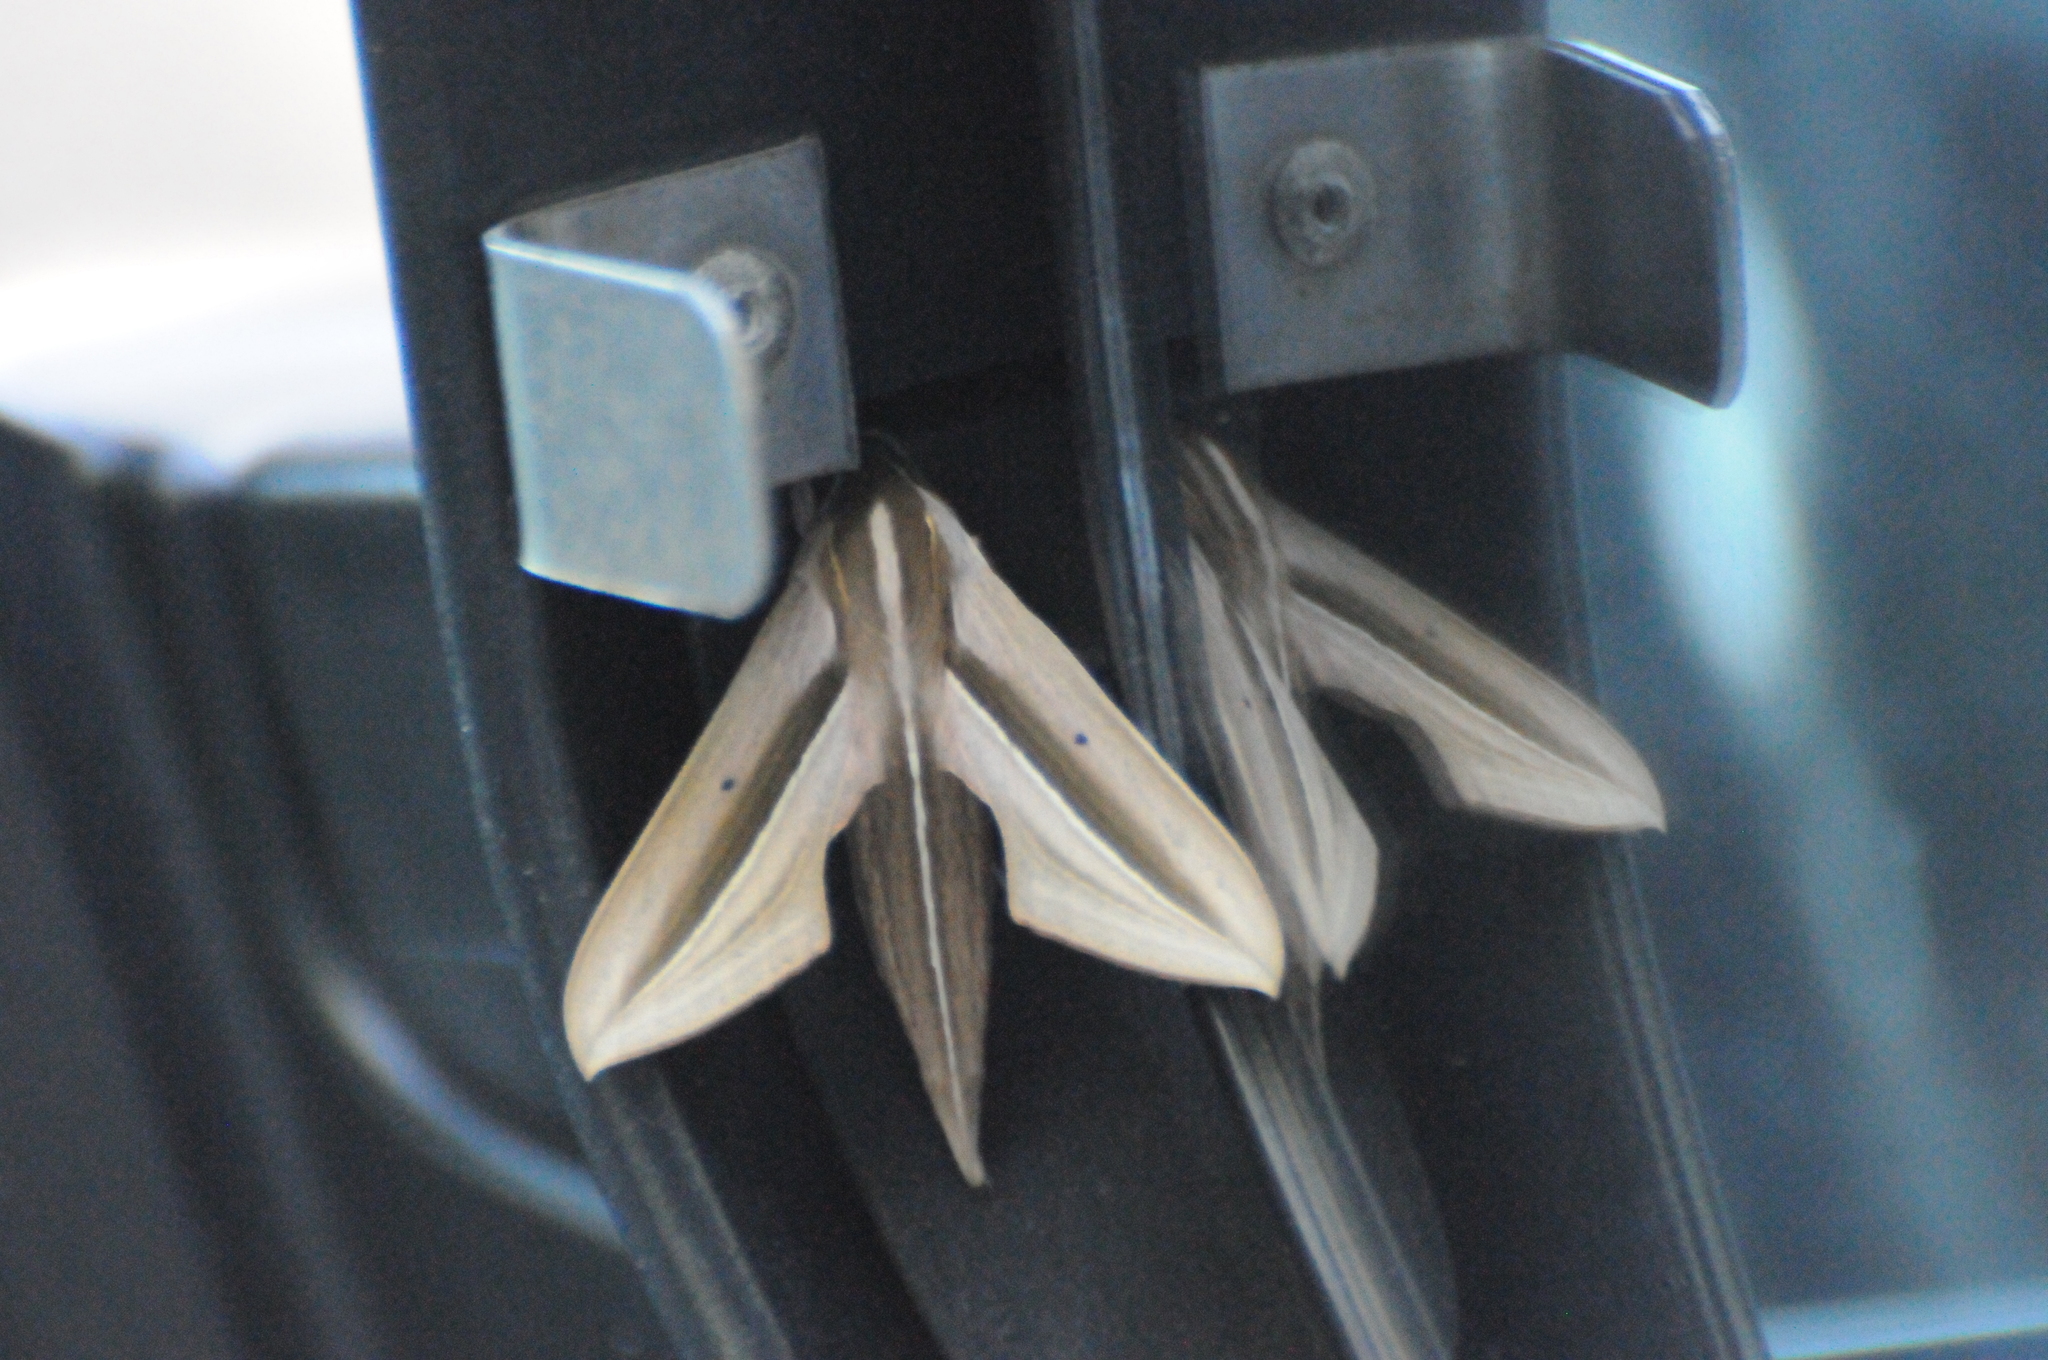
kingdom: Animalia
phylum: Arthropoda
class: Insecta
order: Lepidoptera
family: Sphingidae
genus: Theretra
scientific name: Theretra silhetensis
